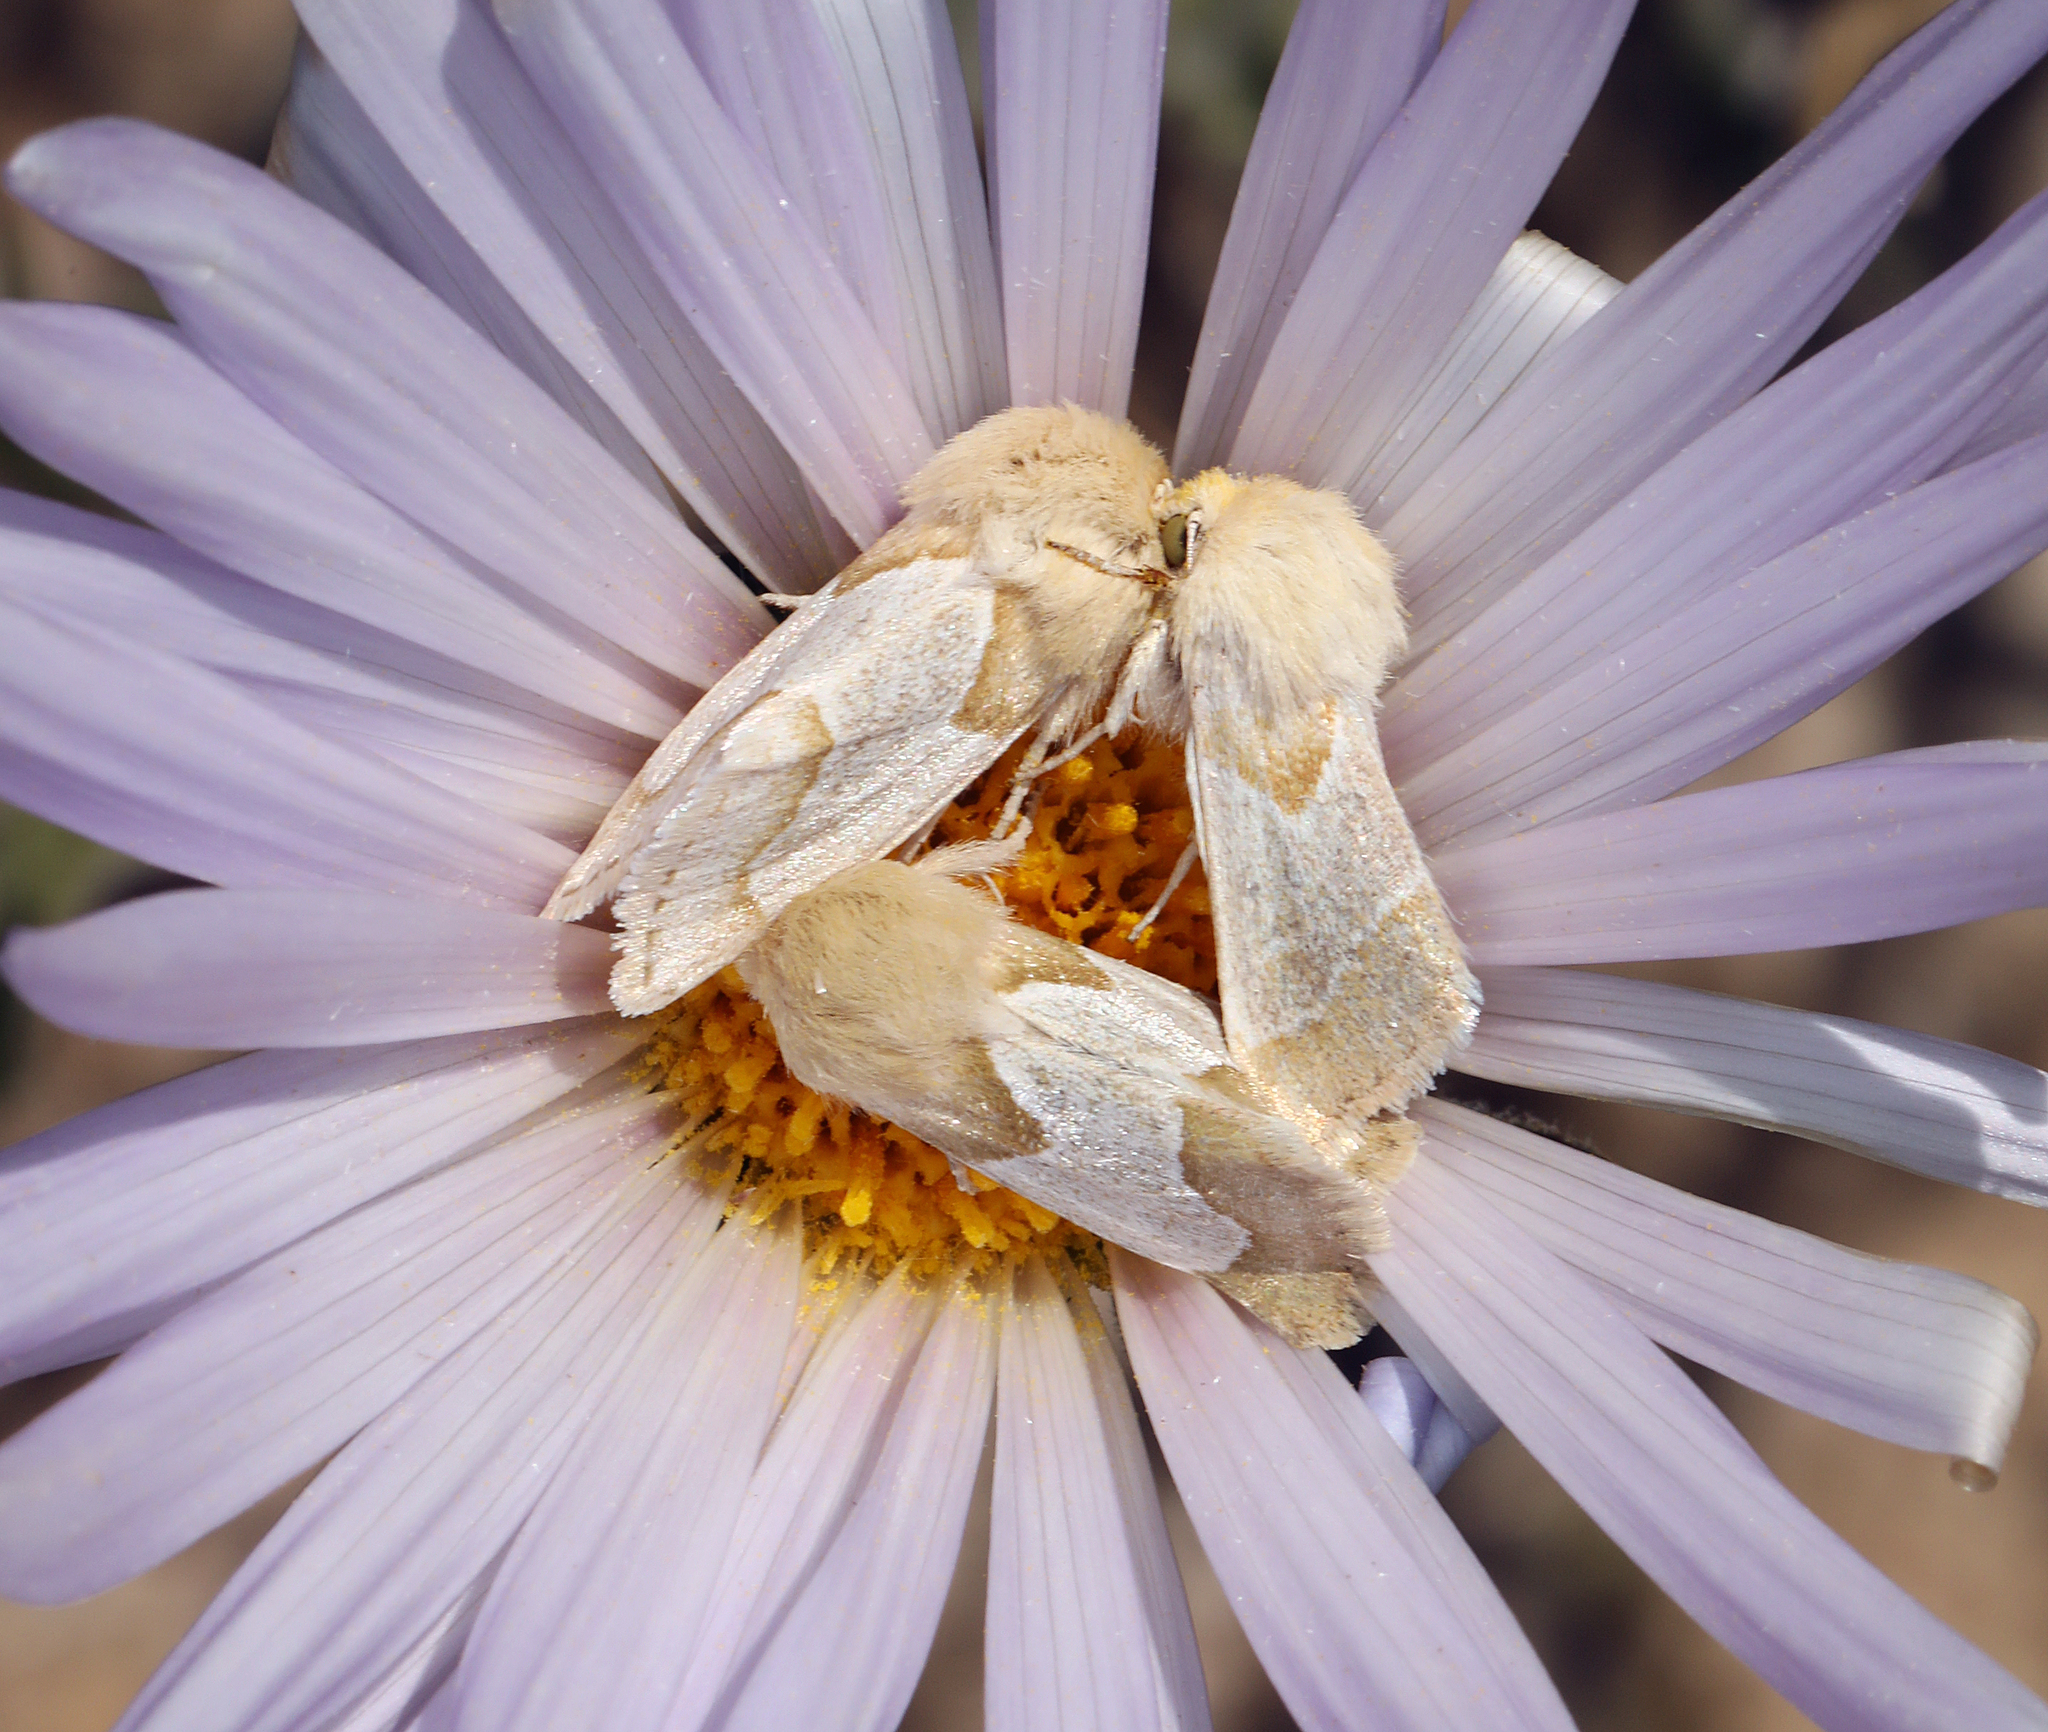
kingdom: Animalia
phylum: Arthropoda
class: Insecta
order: Lepidoptera
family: Noctuidae
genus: Schinia
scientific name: Schinia ligeae
